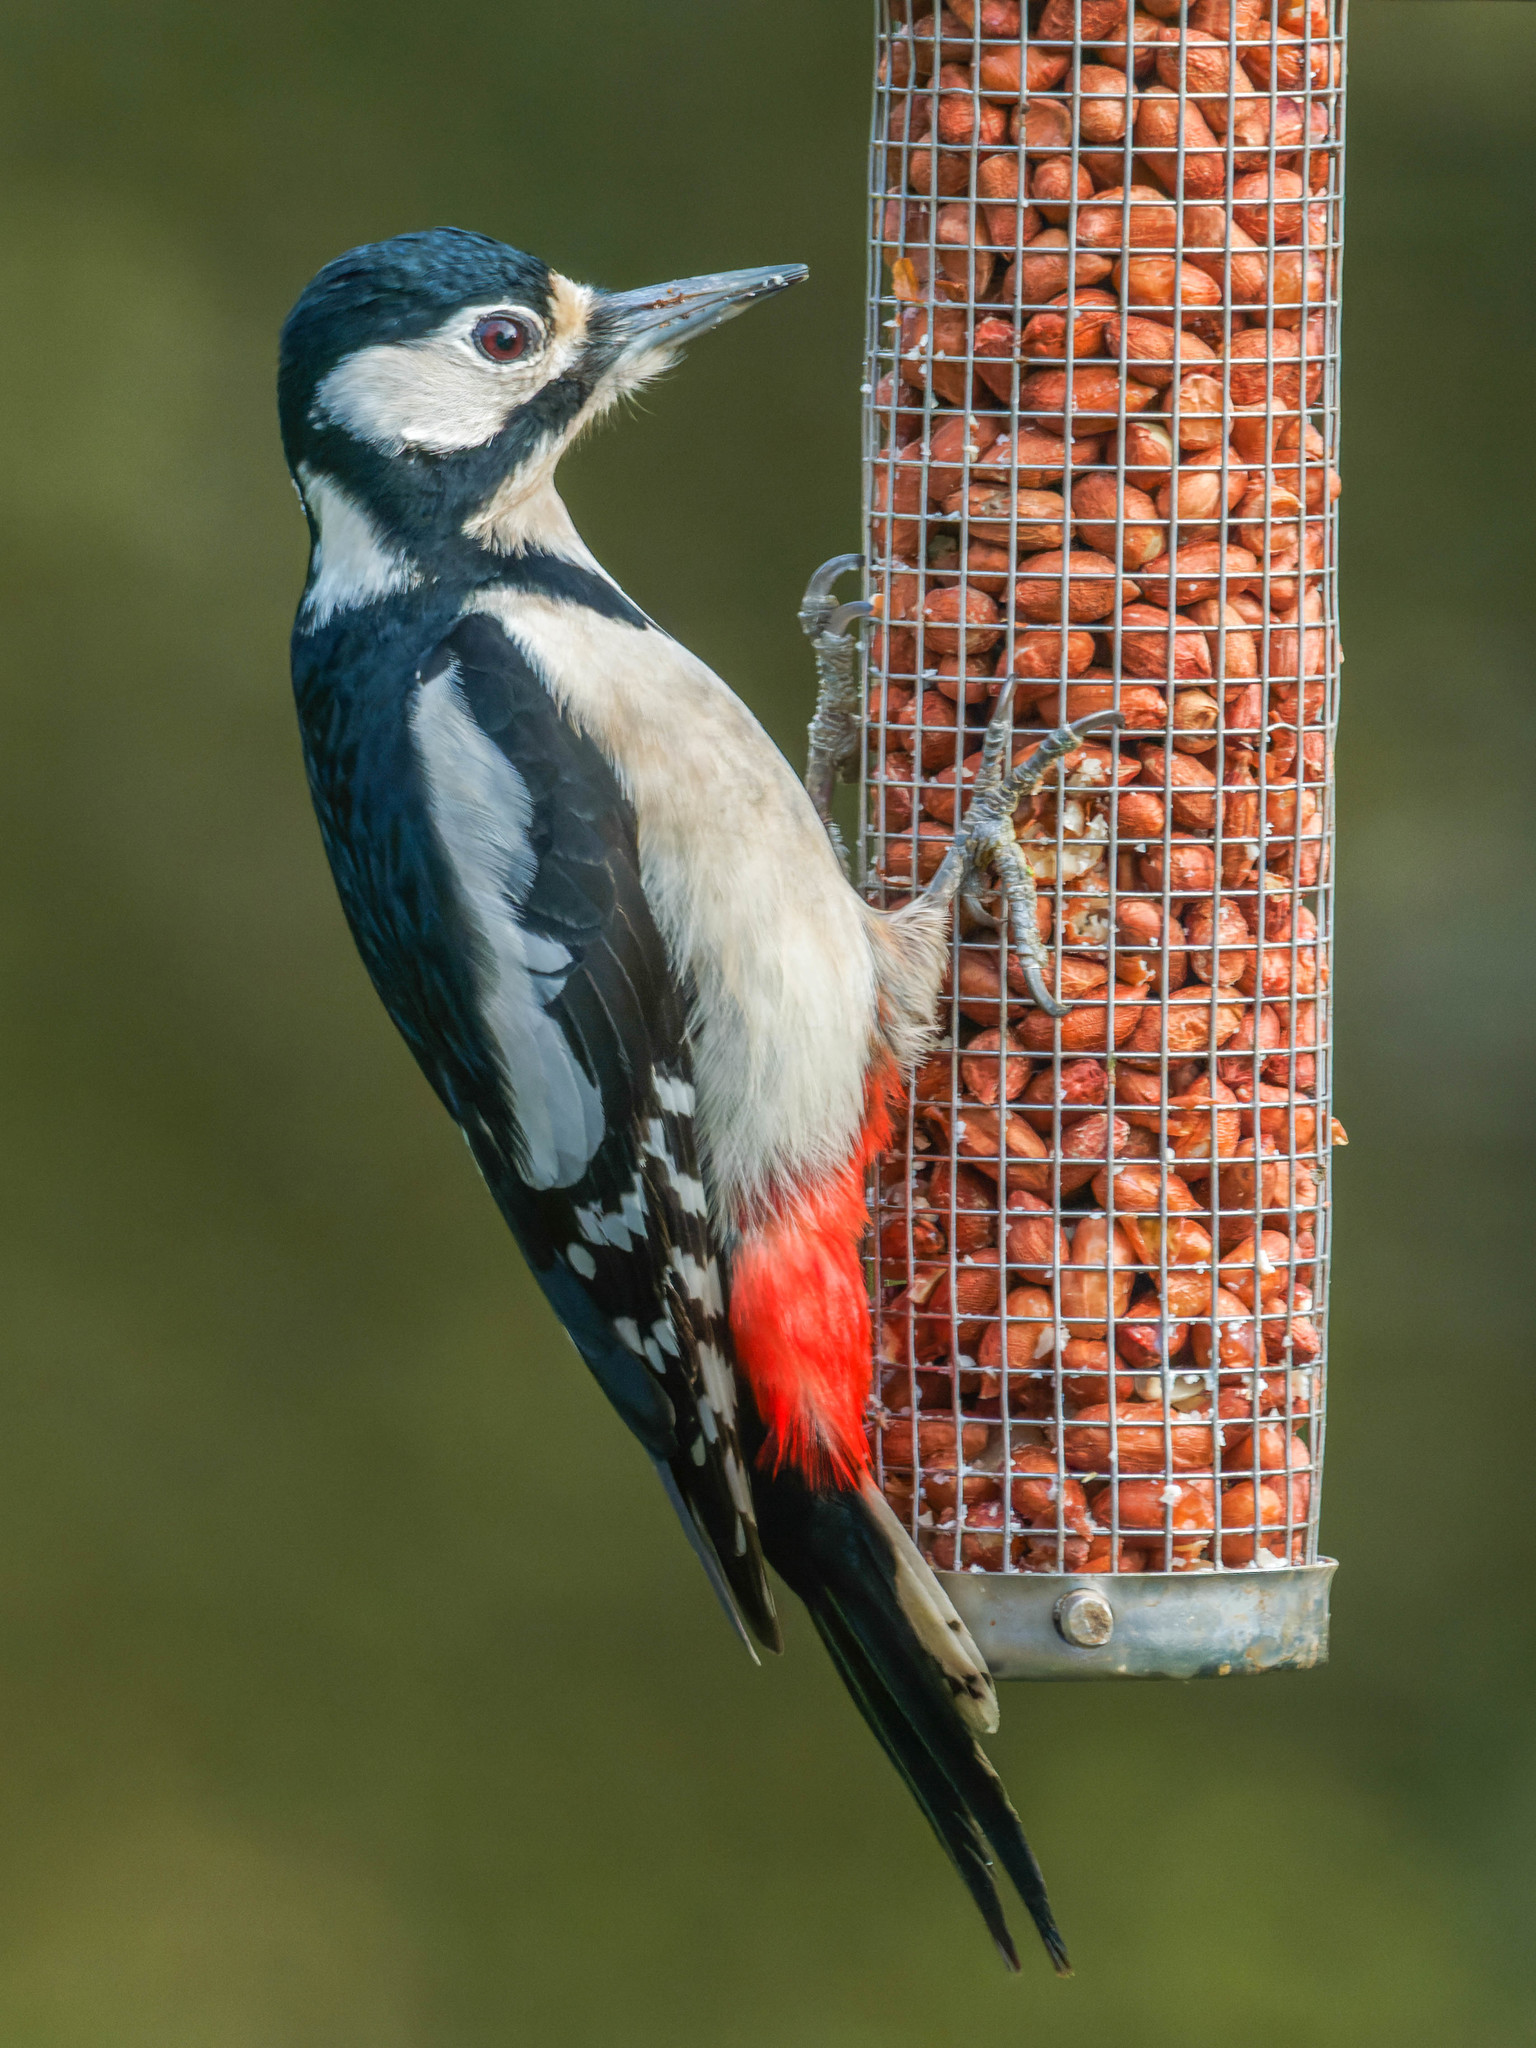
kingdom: Animalia
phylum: Chordata
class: Aves
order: Piciformes
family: Picidae
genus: Dendrocopos
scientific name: Dendrocopos major
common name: Great spotted woodpecker
